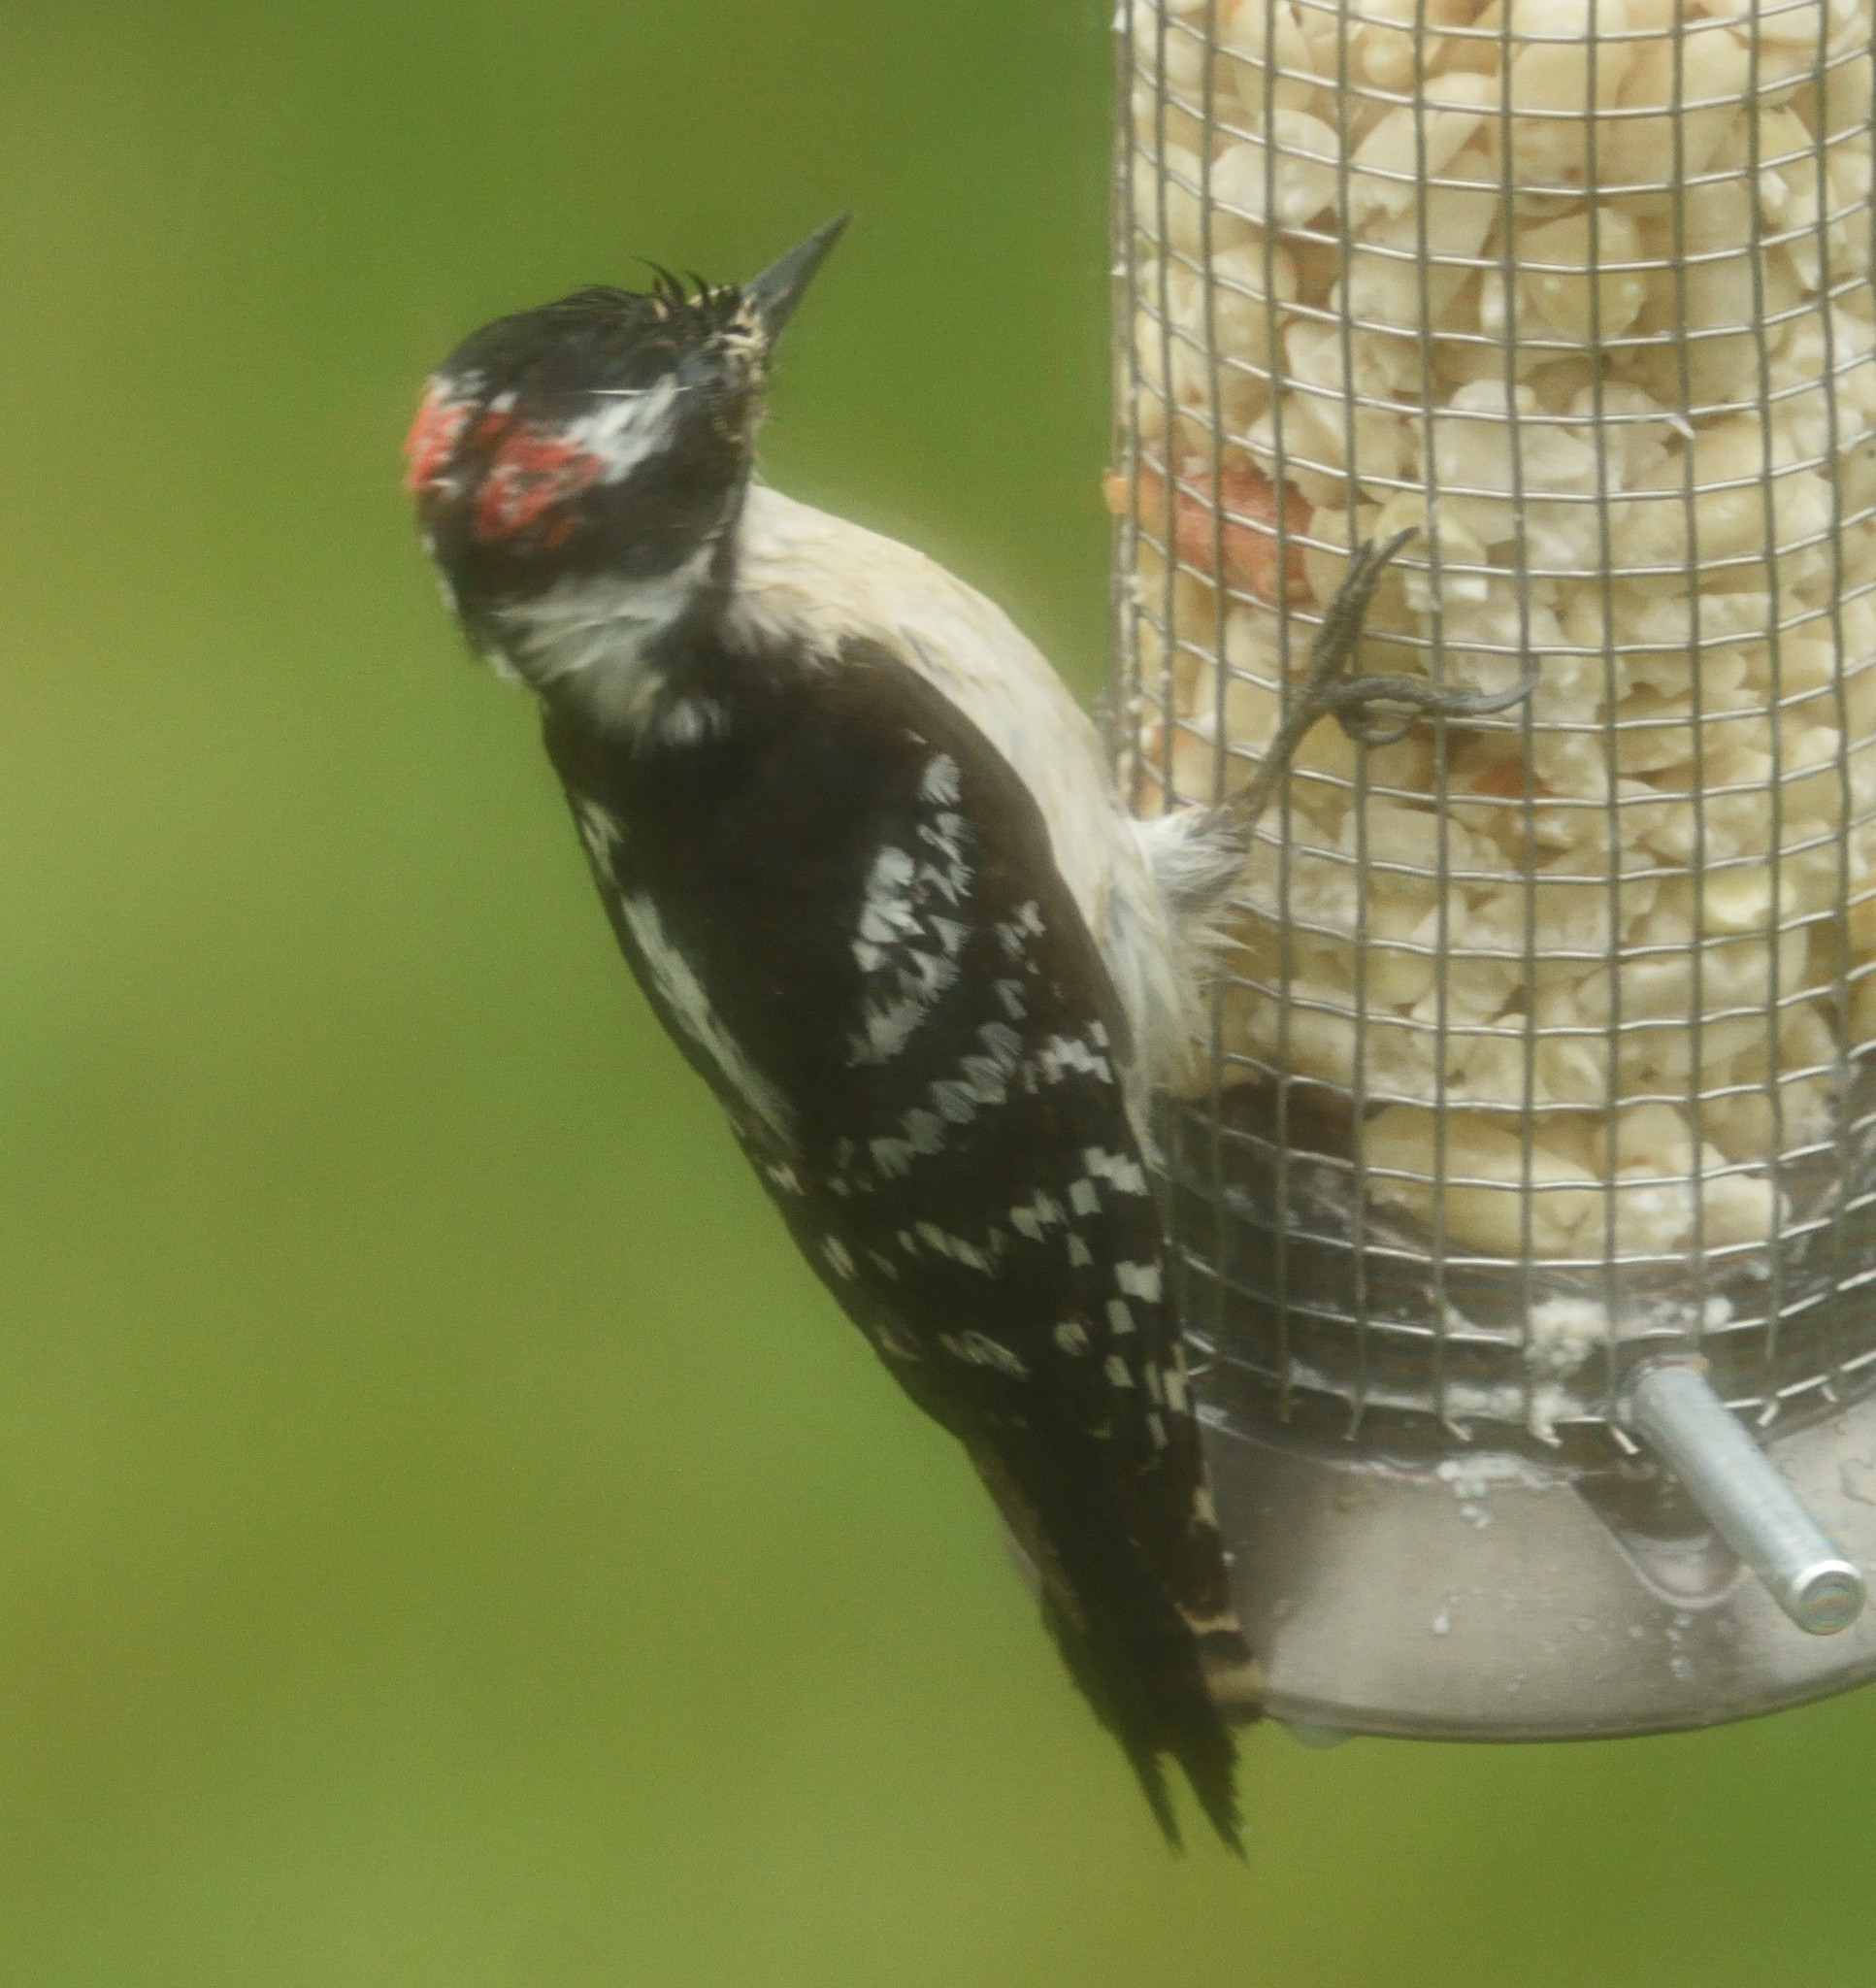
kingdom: Animalia
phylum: Chordata
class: Aves
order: Piciformes
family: Picidae
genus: Dryobates
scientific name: Dryobates pubescens
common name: Downy woodpecker
